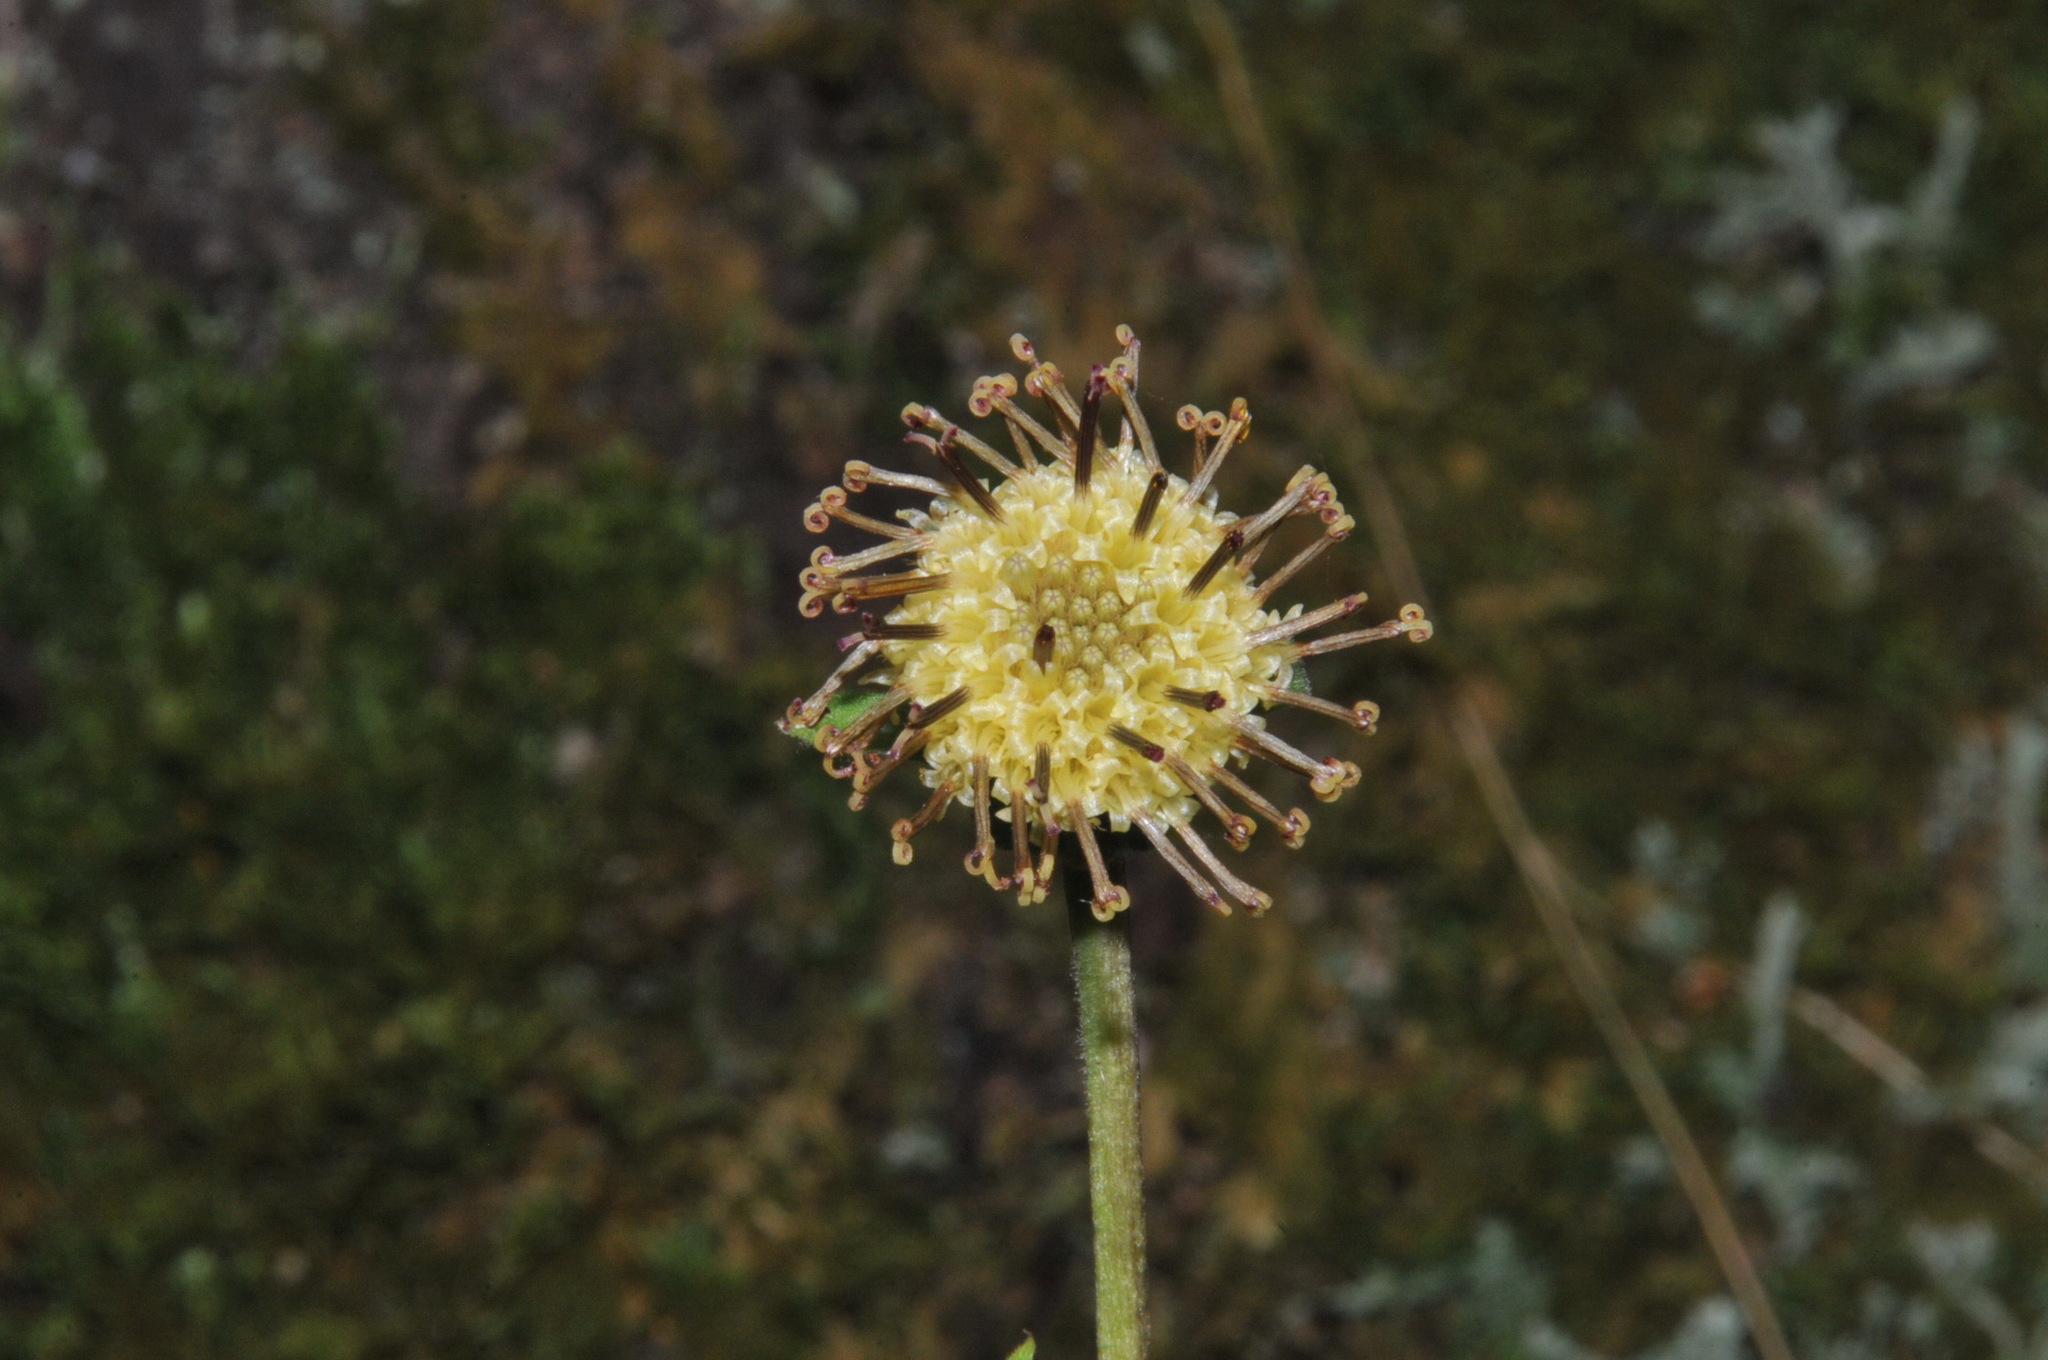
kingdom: Plantae
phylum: Tracheophyta
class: Magnoliopsida
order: Asterales
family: Asteraceae
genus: Rugelia
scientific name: Rugelia nudicaulis
